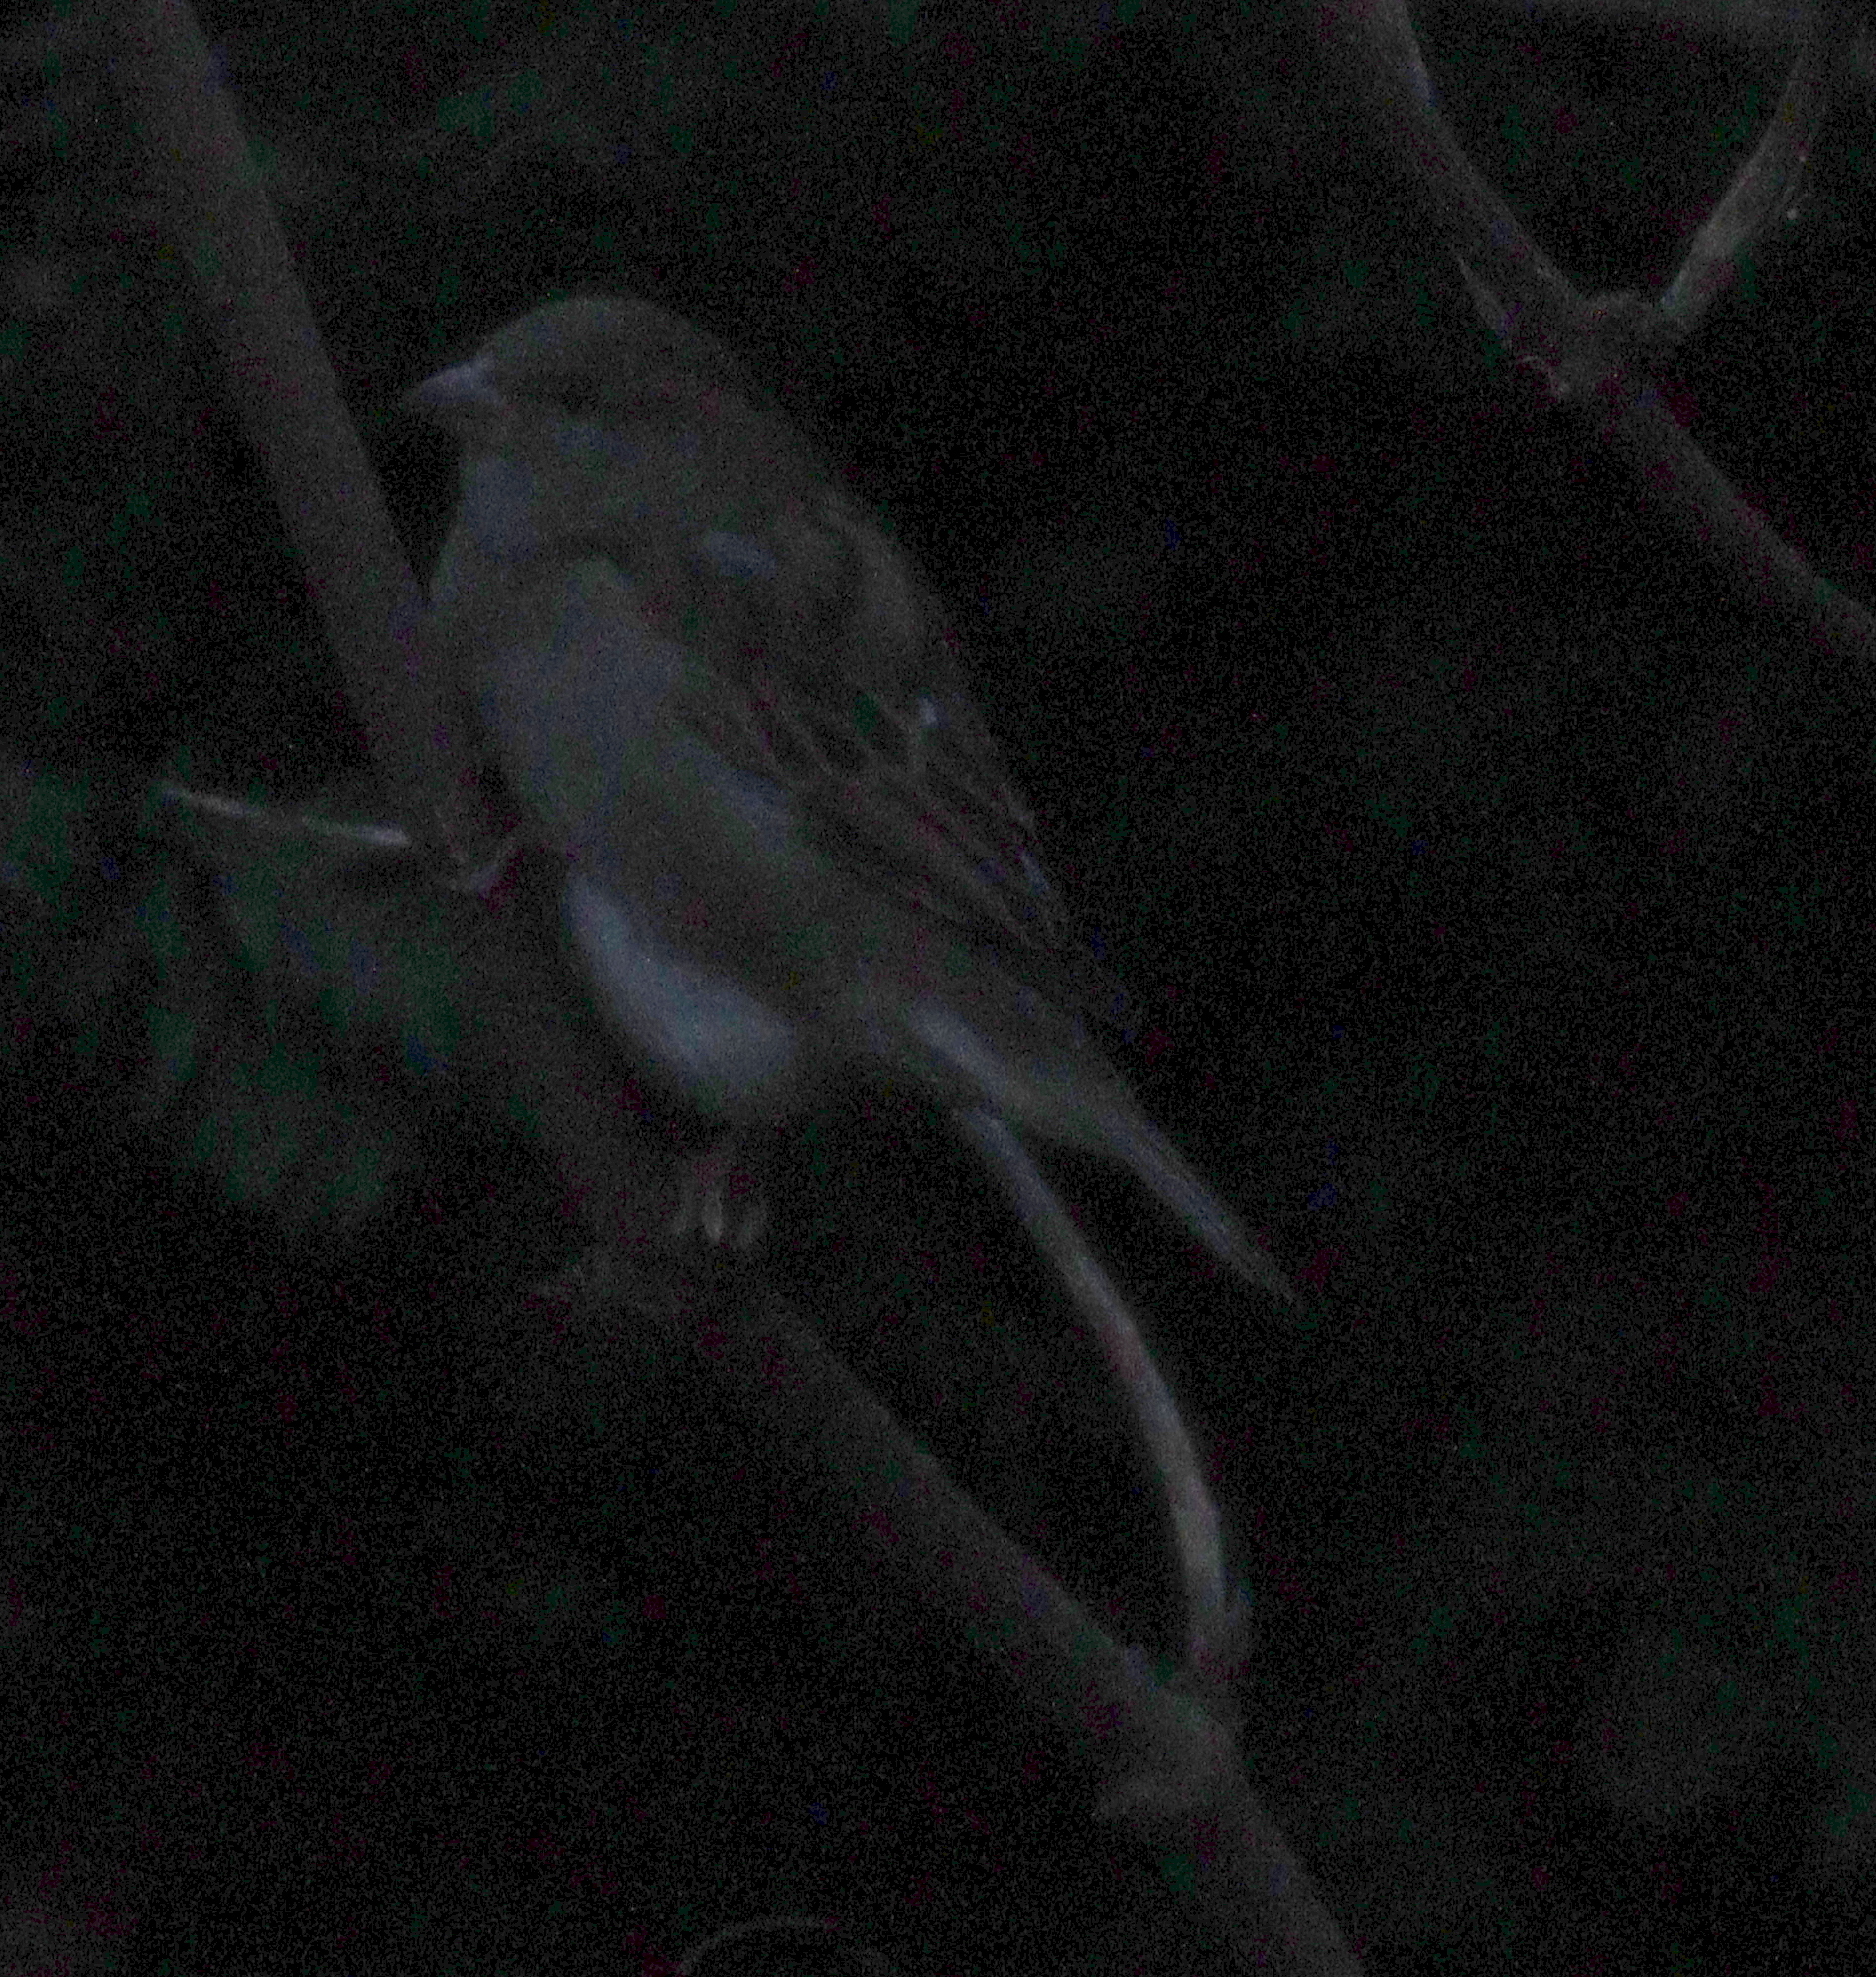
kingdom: Animalia
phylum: Chordata
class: Aves
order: Passeriformes
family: Passeridae
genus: Passer
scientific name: Passer domesticus
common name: House sparrow
